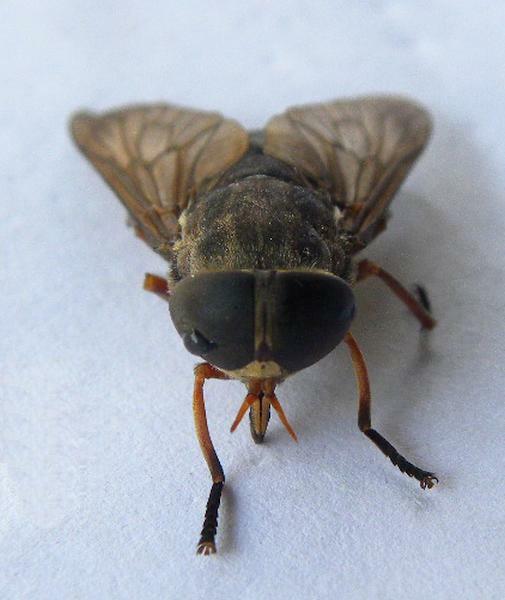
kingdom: Animalia
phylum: Arthropoda
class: Insecta
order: Diptera
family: Tabanidae
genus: Tabanus
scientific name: Tabanus calens
